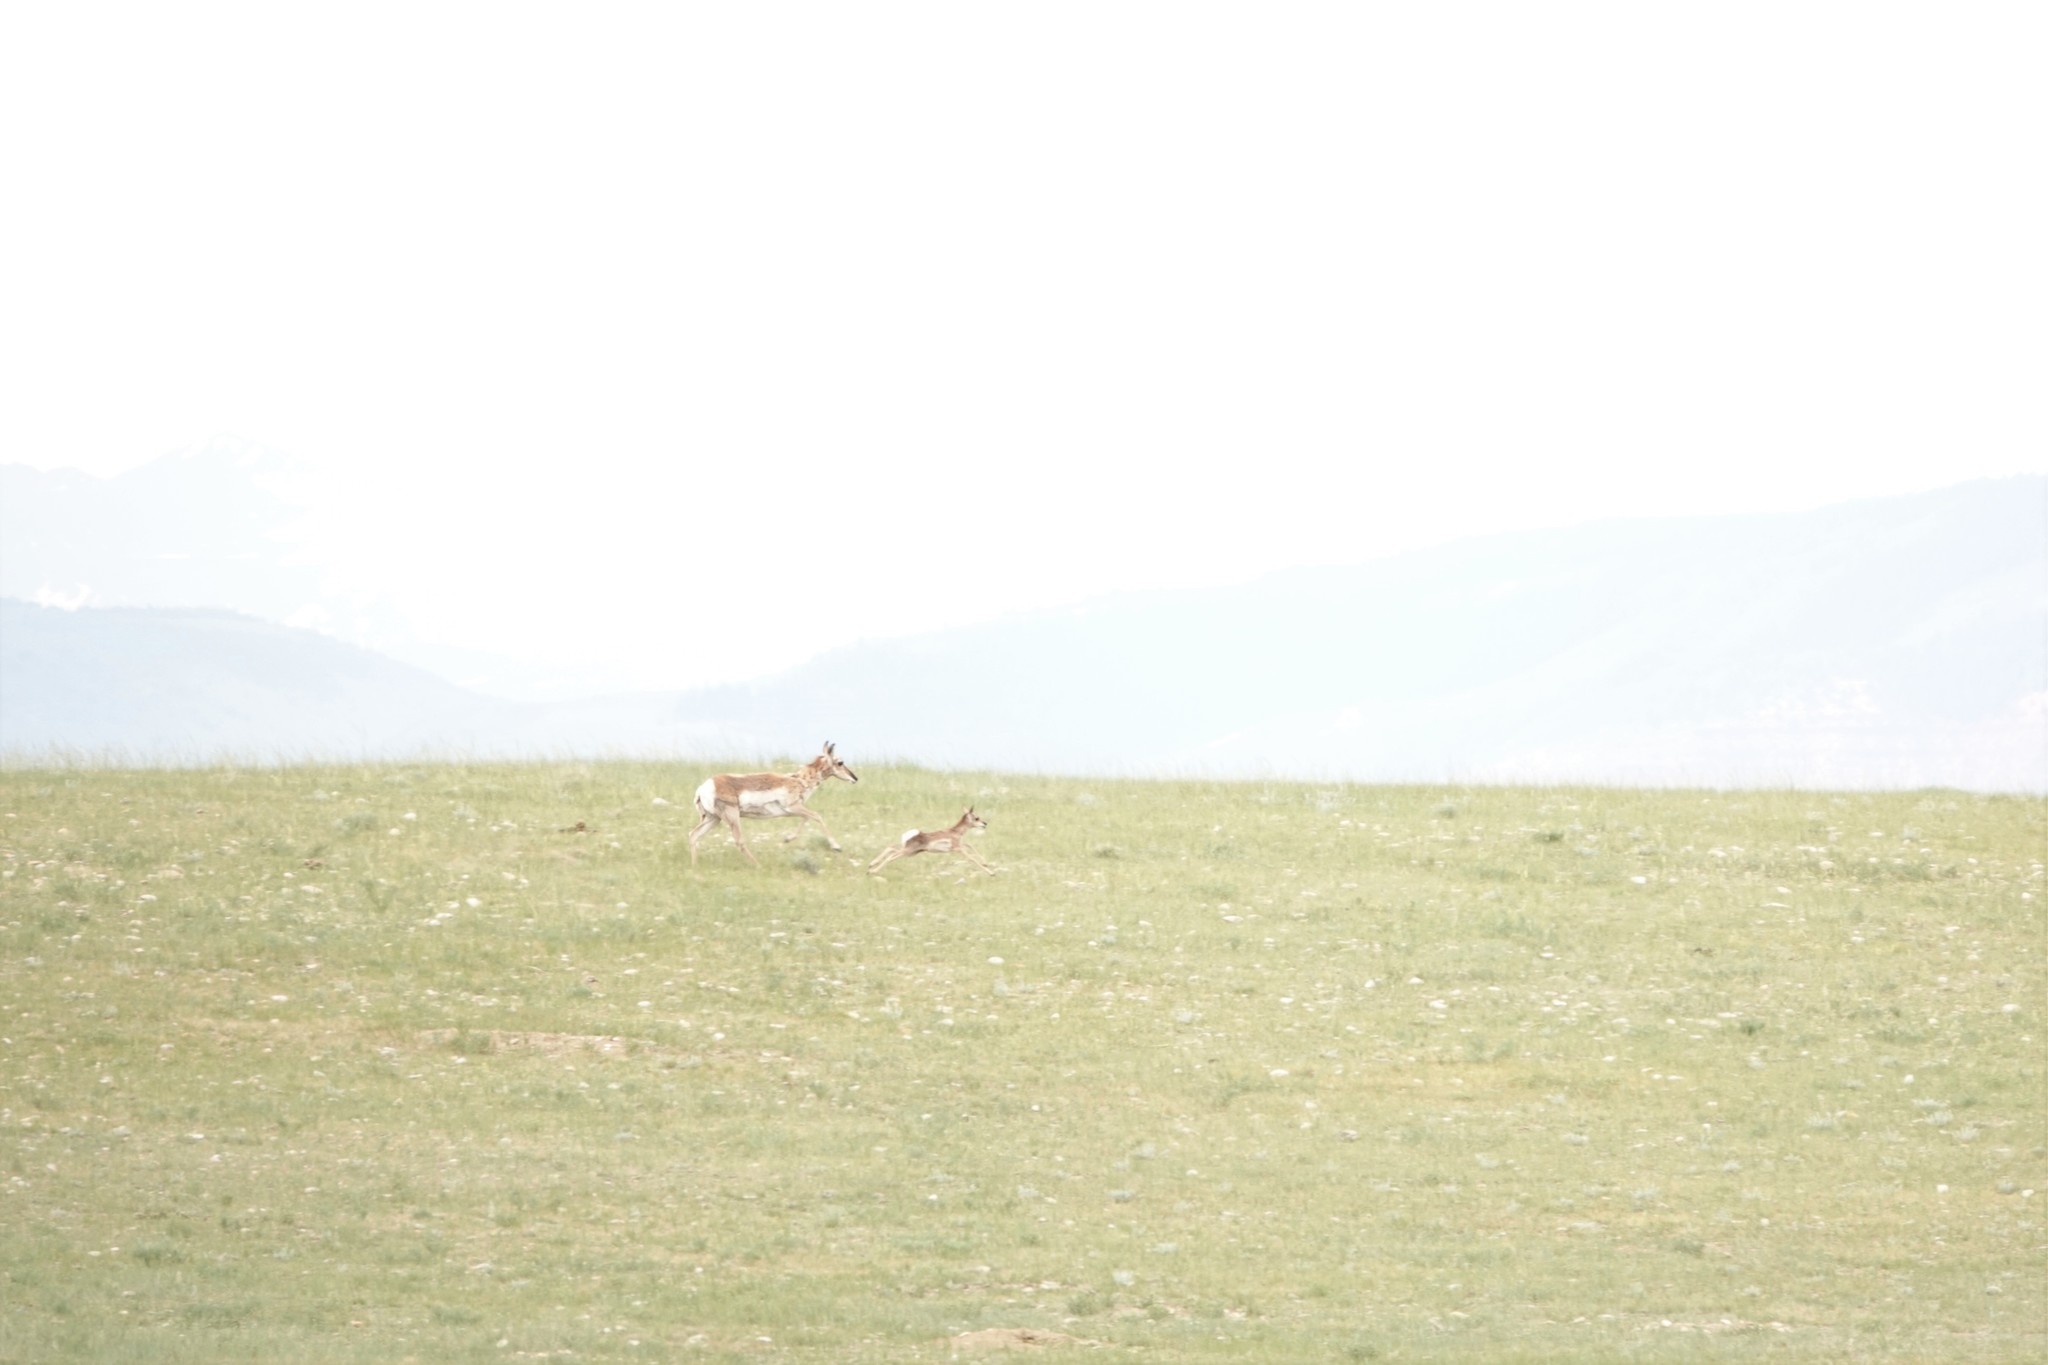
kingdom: Animalia
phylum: Chordata
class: Mammalia
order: Artiodactyla
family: Antilocapridae
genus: Antilocapra
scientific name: Antilocapra americana
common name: Pronghorn
